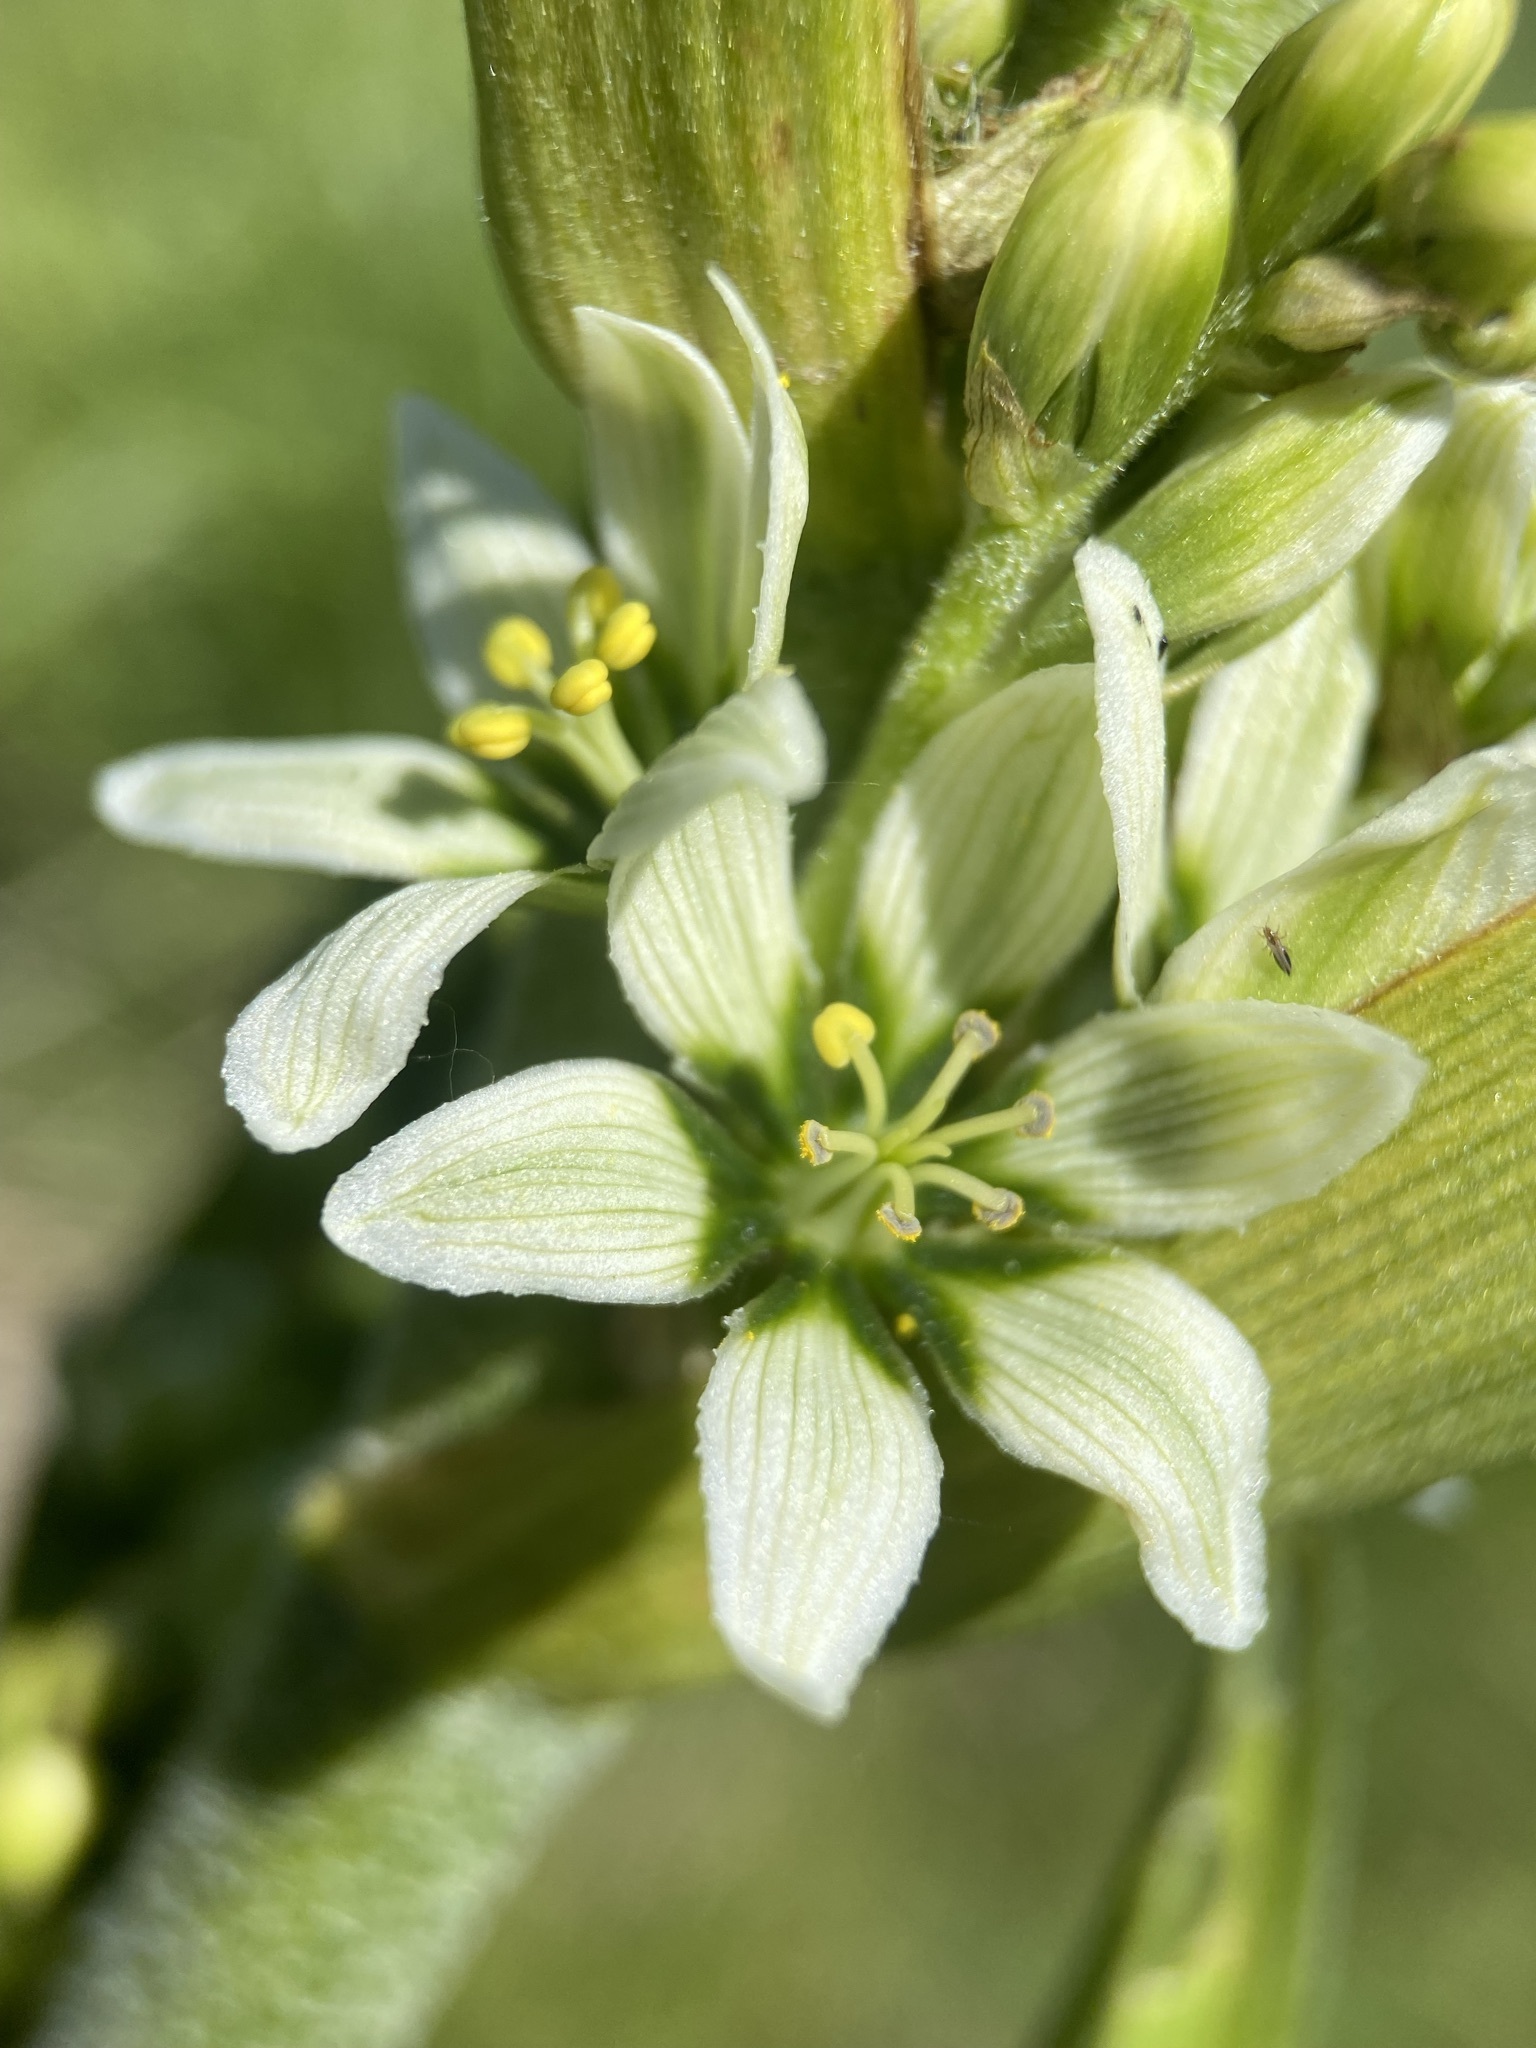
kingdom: Plantae
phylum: Tracheophyta
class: Liliopsida
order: Liliales
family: Melanthiaceae
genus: Veratrum
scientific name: Veratrum californicum
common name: California veratrum
